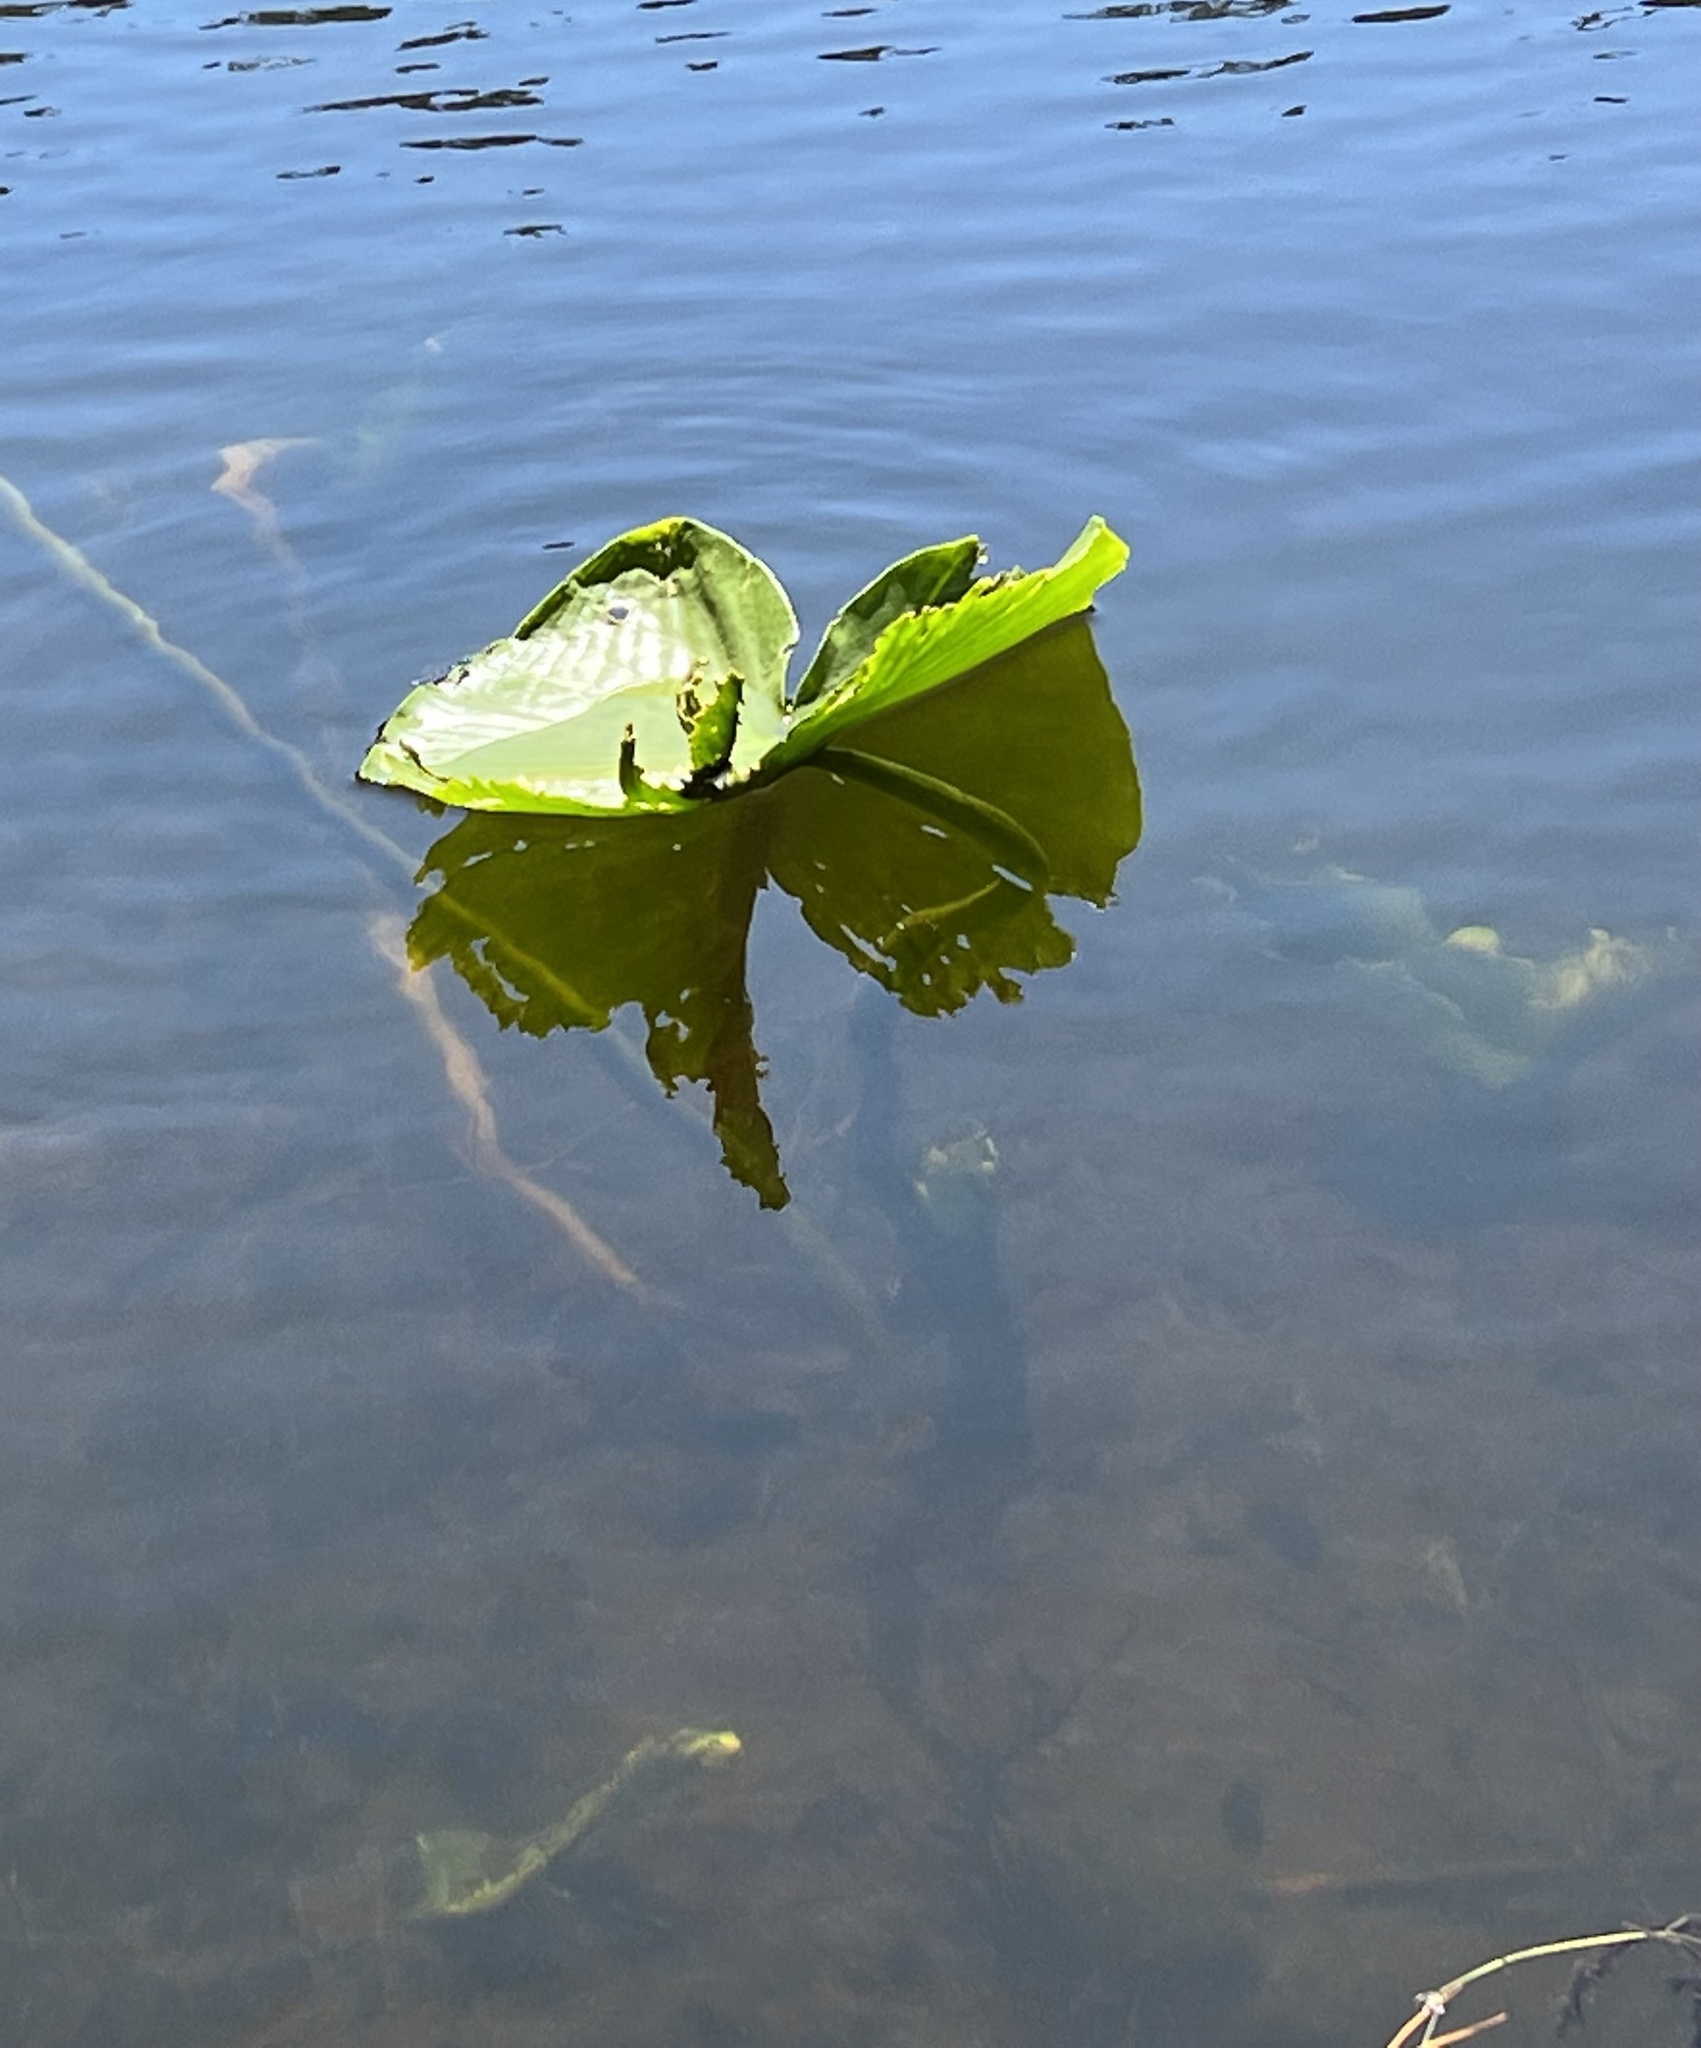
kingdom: Plantae
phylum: Tracheophyta
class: Magnoliopsida
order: Nymphaeales
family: Nymphaeaceae
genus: Nuphar
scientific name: Nuphar polysepala
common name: Rocky mountain cow-lily
